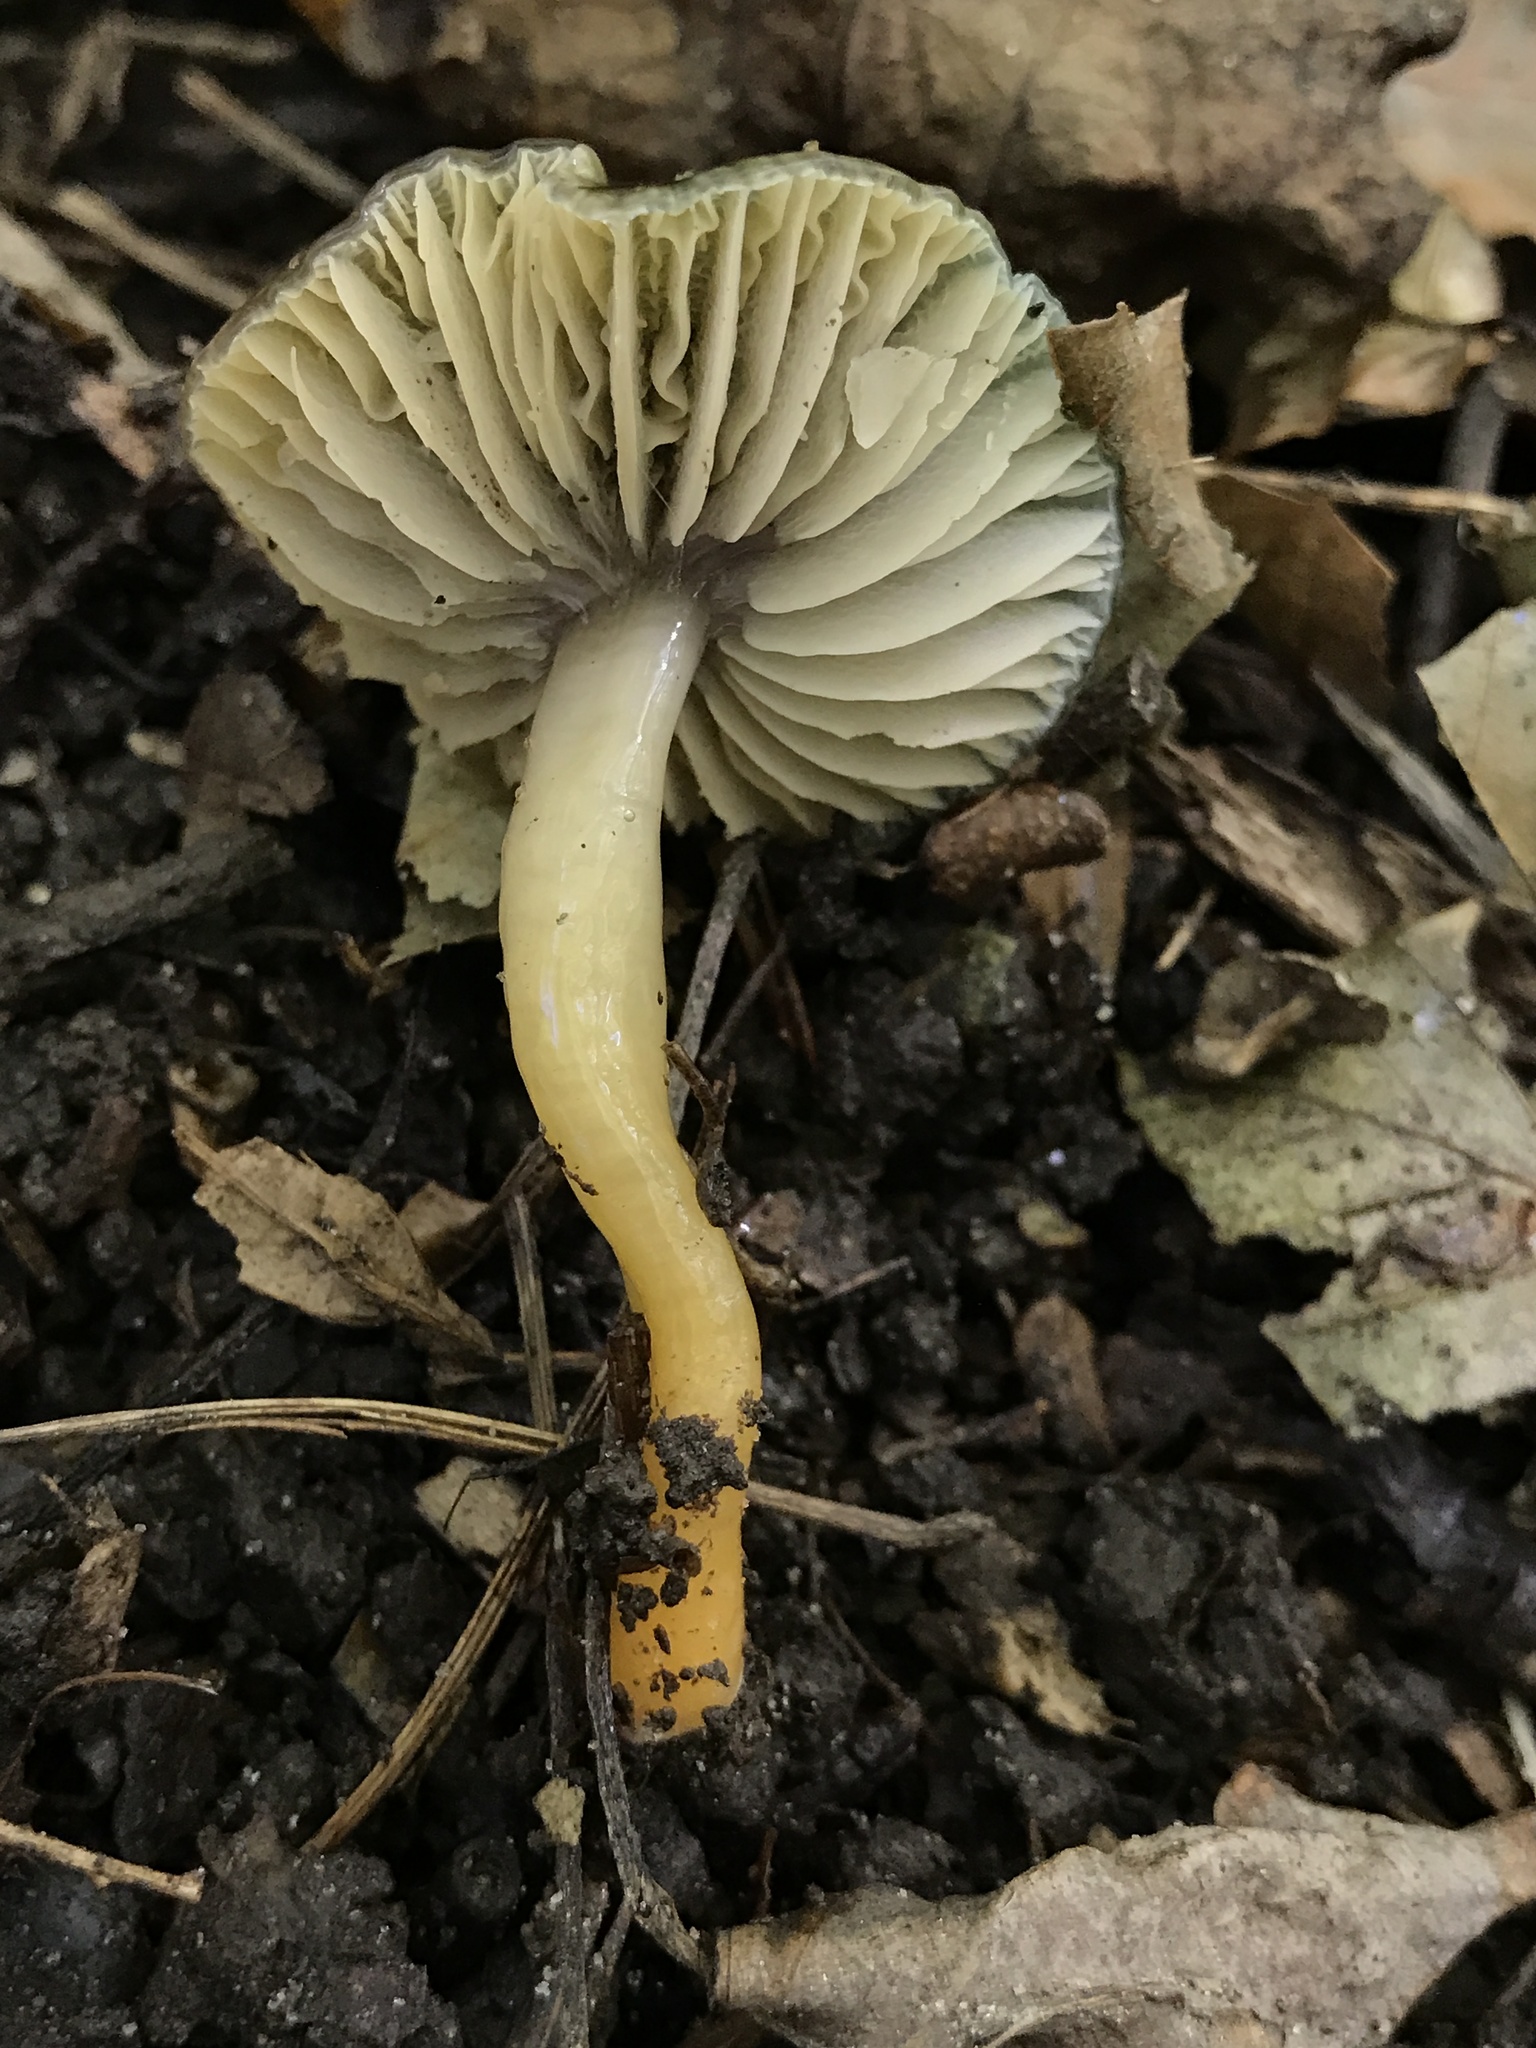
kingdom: Fungi
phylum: Basidiomycota
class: Agaricomycetes
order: Agaricales
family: Hygrophoraceae
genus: Gliophorus
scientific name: Gliophorus psittacinus
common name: Parrot wax-cap
